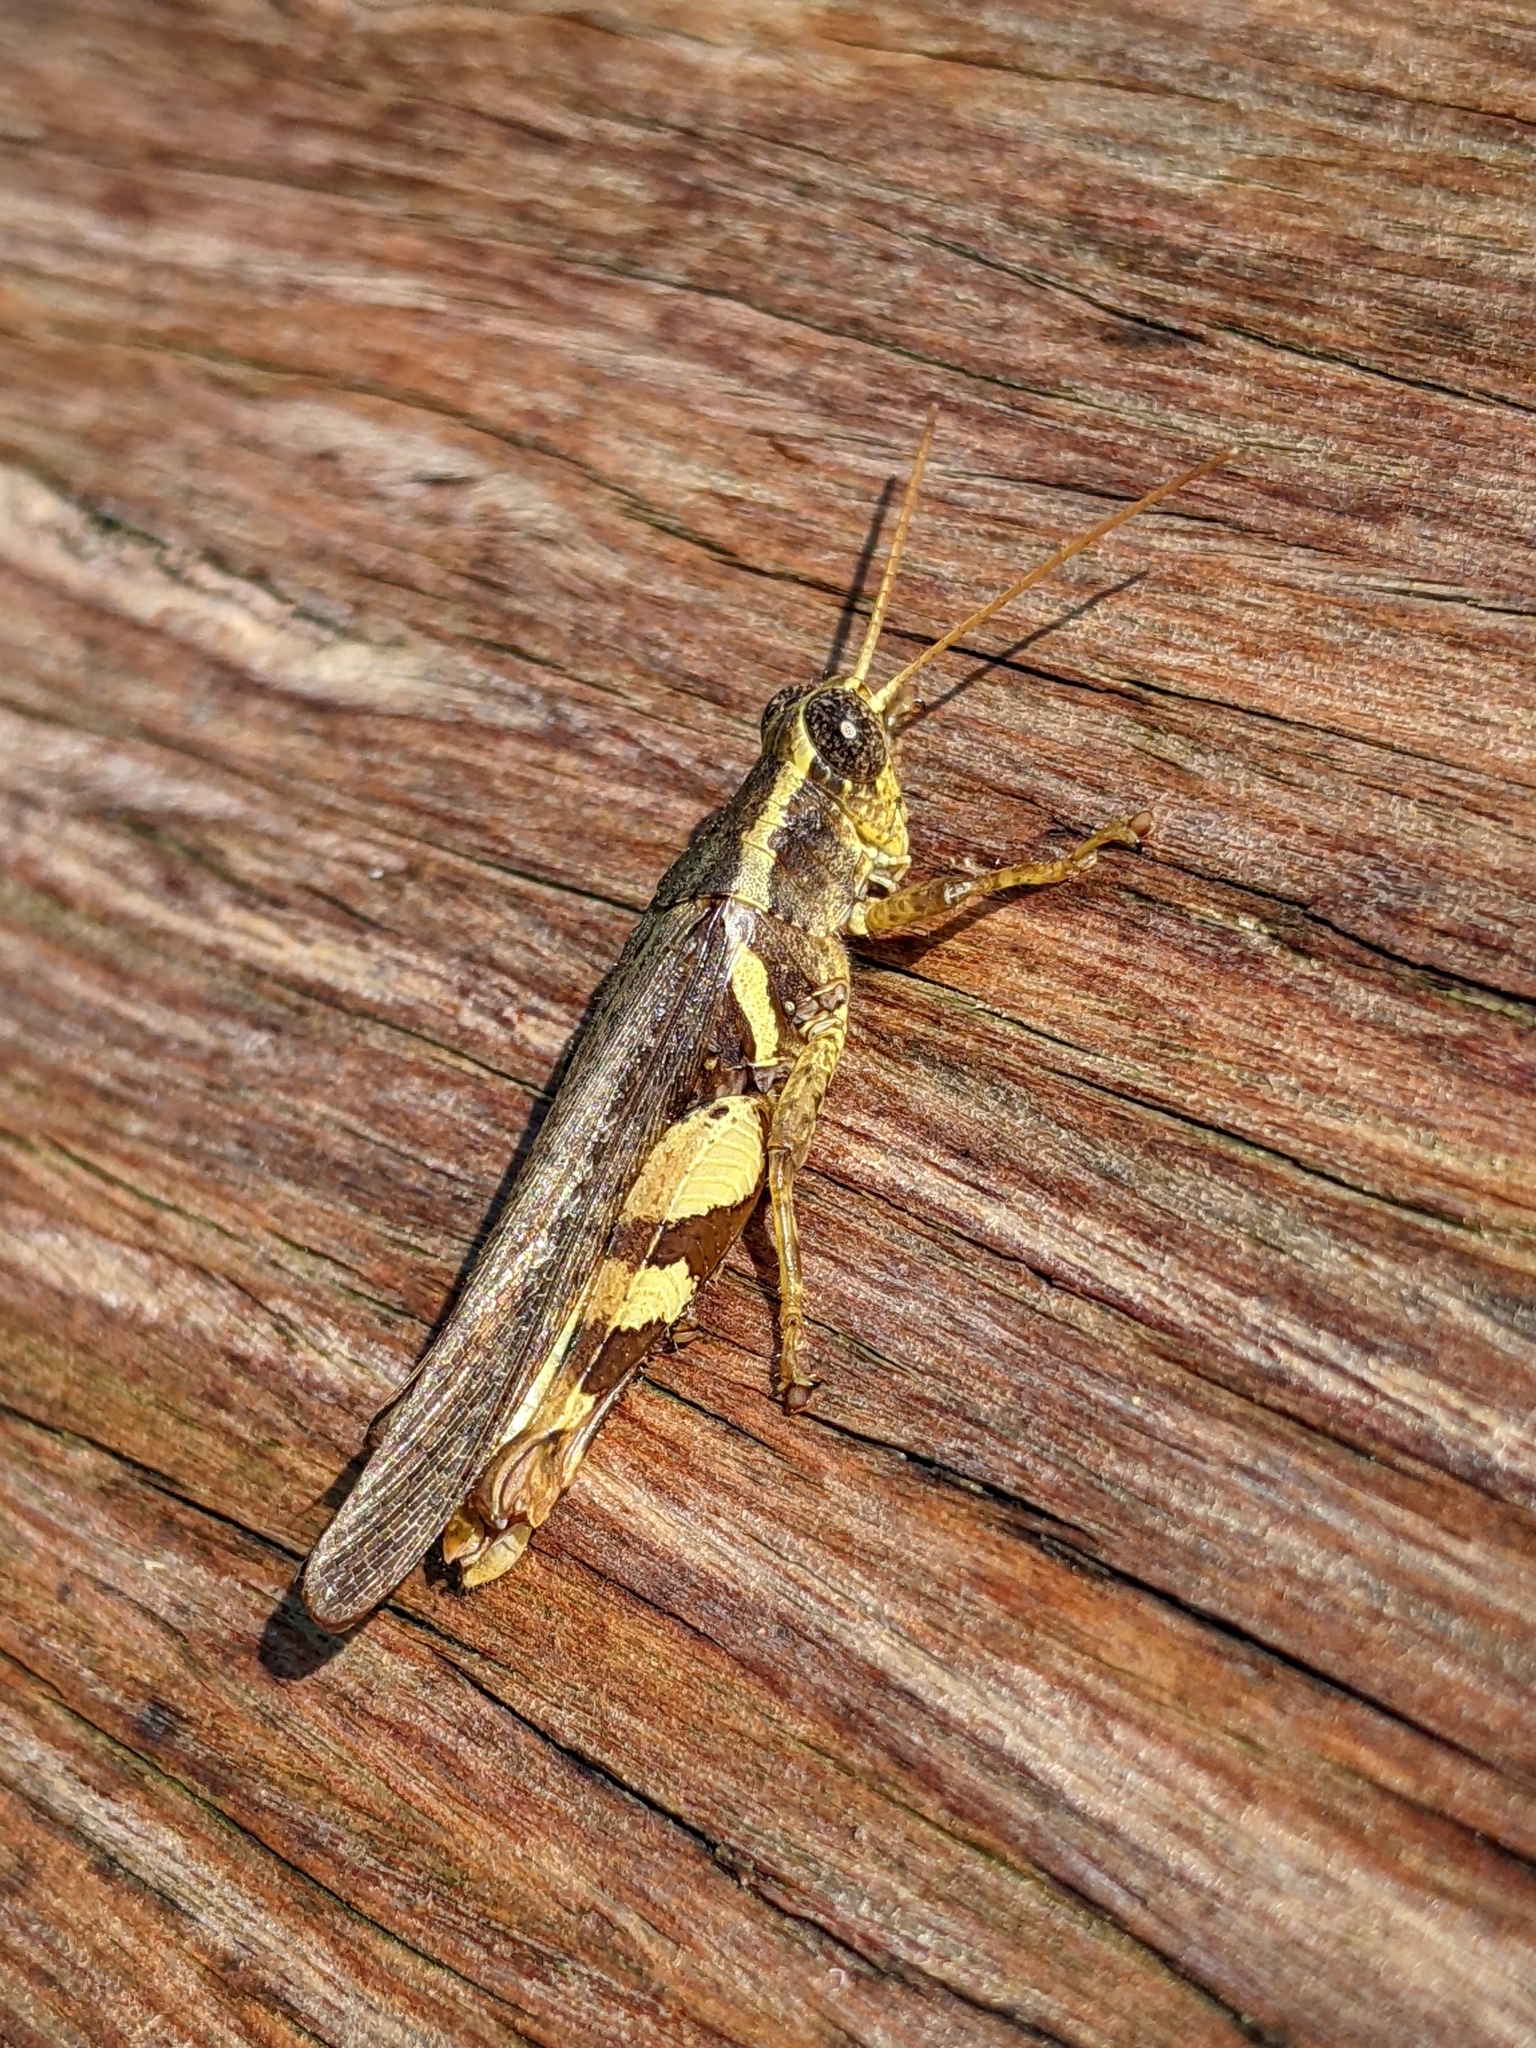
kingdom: Animalia
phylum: Arthropoda
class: Insecta
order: Orthoptera
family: Acrididae
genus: Xenocatantops
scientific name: Xenocatantops humile
